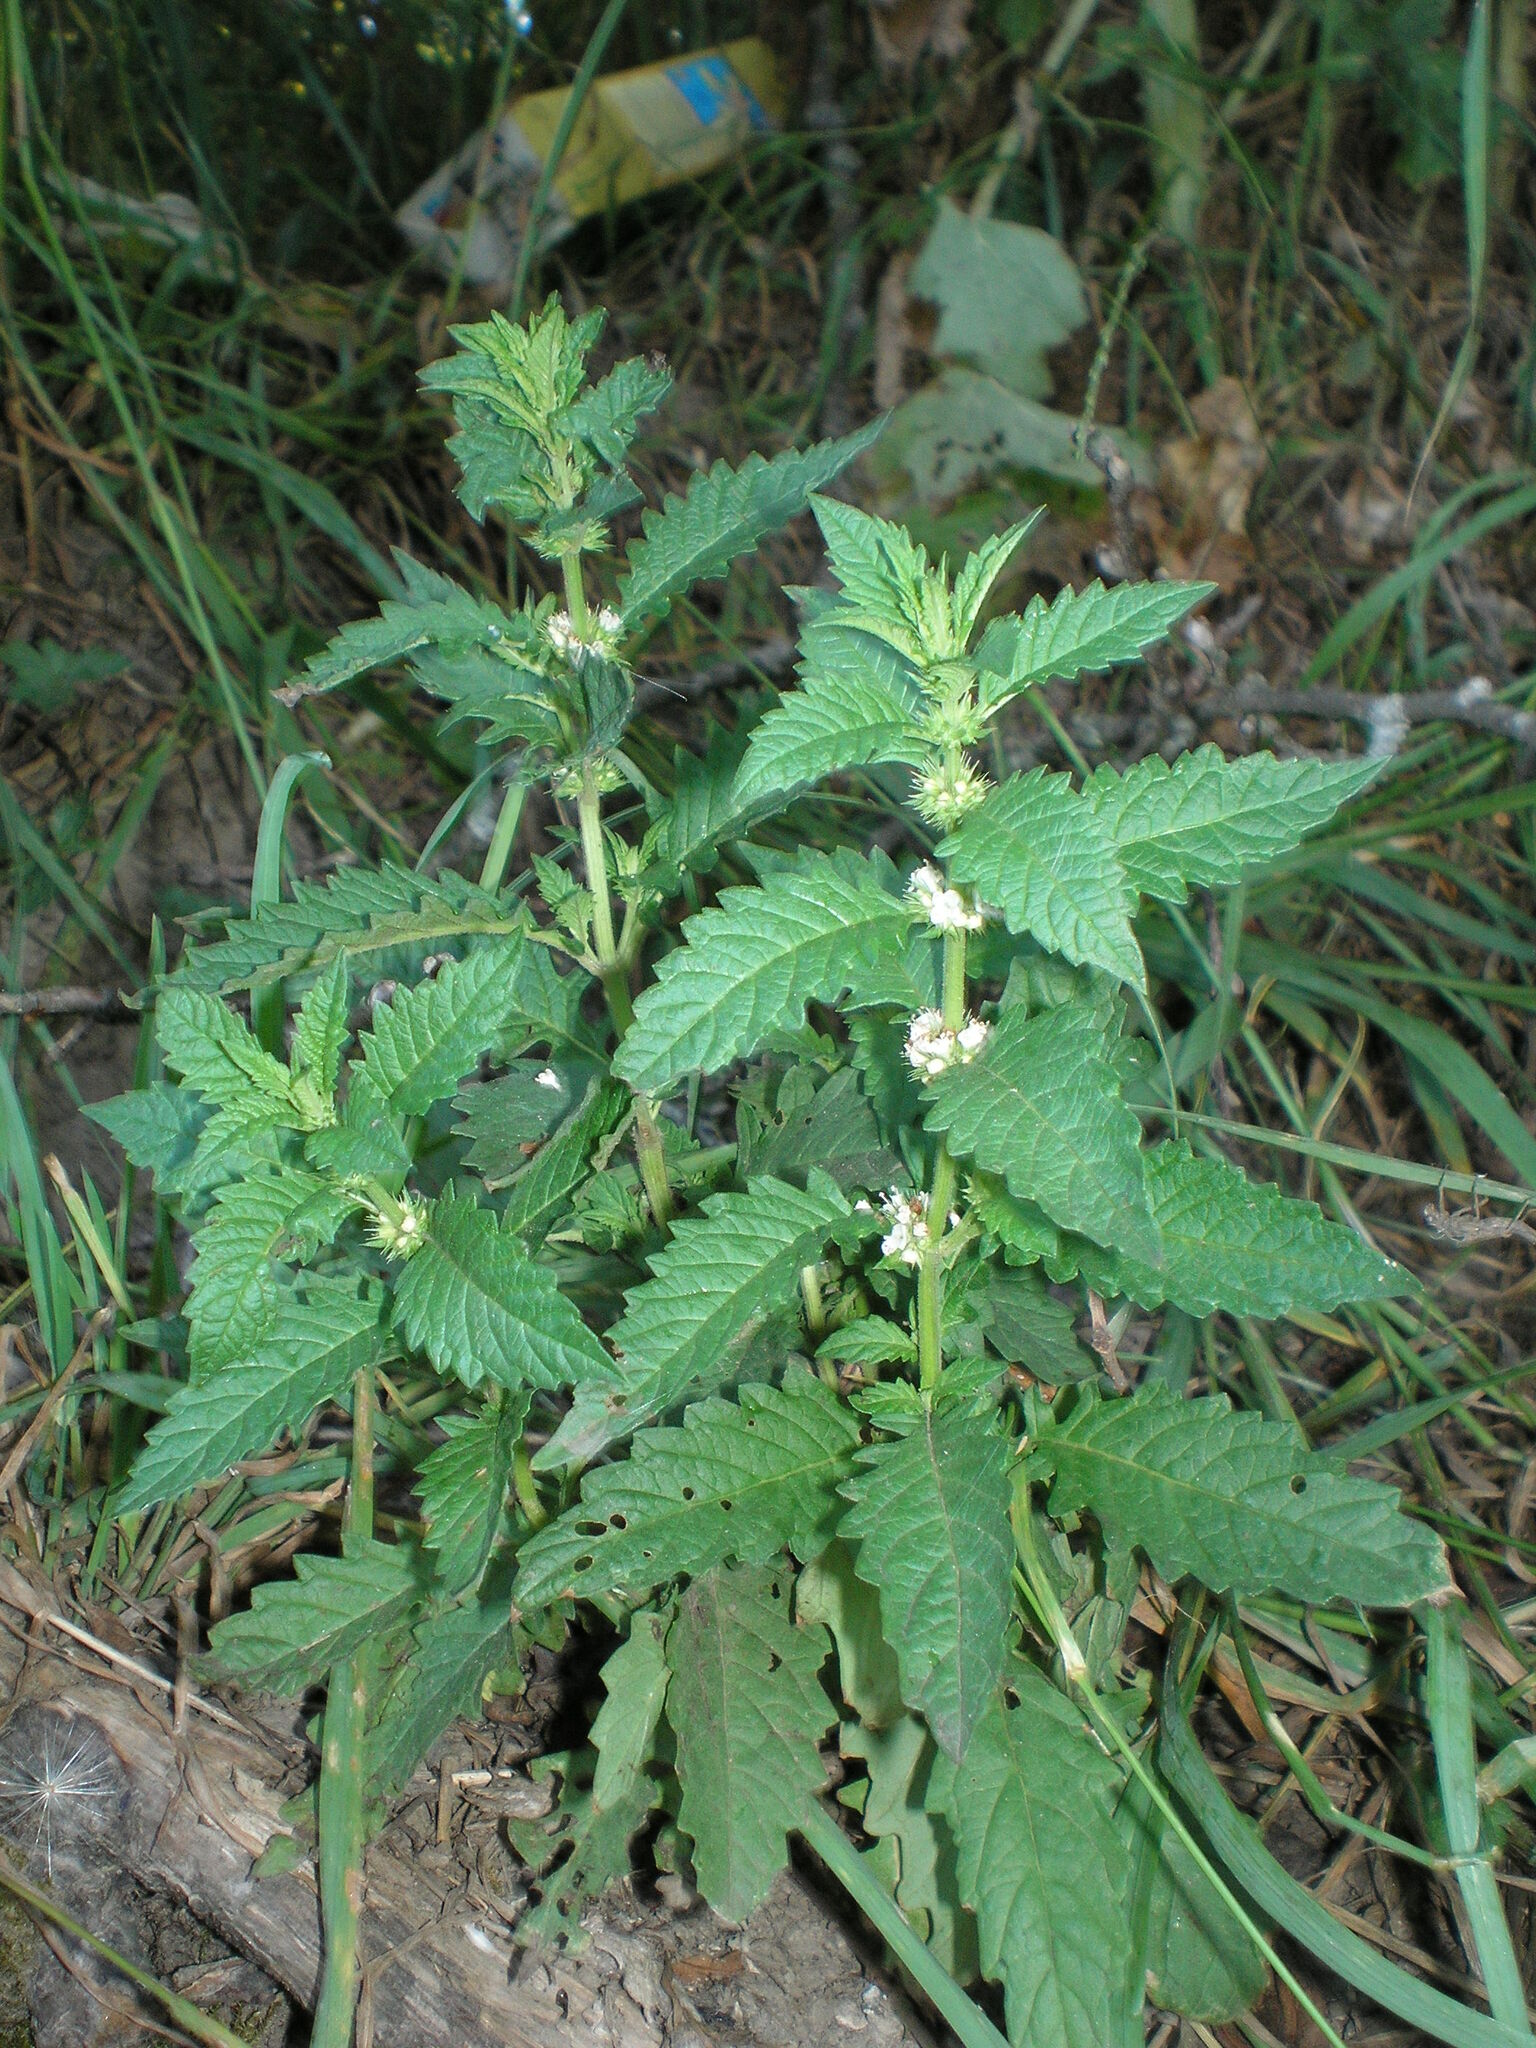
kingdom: Plantae
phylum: Tracheophyta
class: Magnoliopsida
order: Lamiales
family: Lamiaceae
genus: Lycopus
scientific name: Lycopus europaeus
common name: European bugleweed
